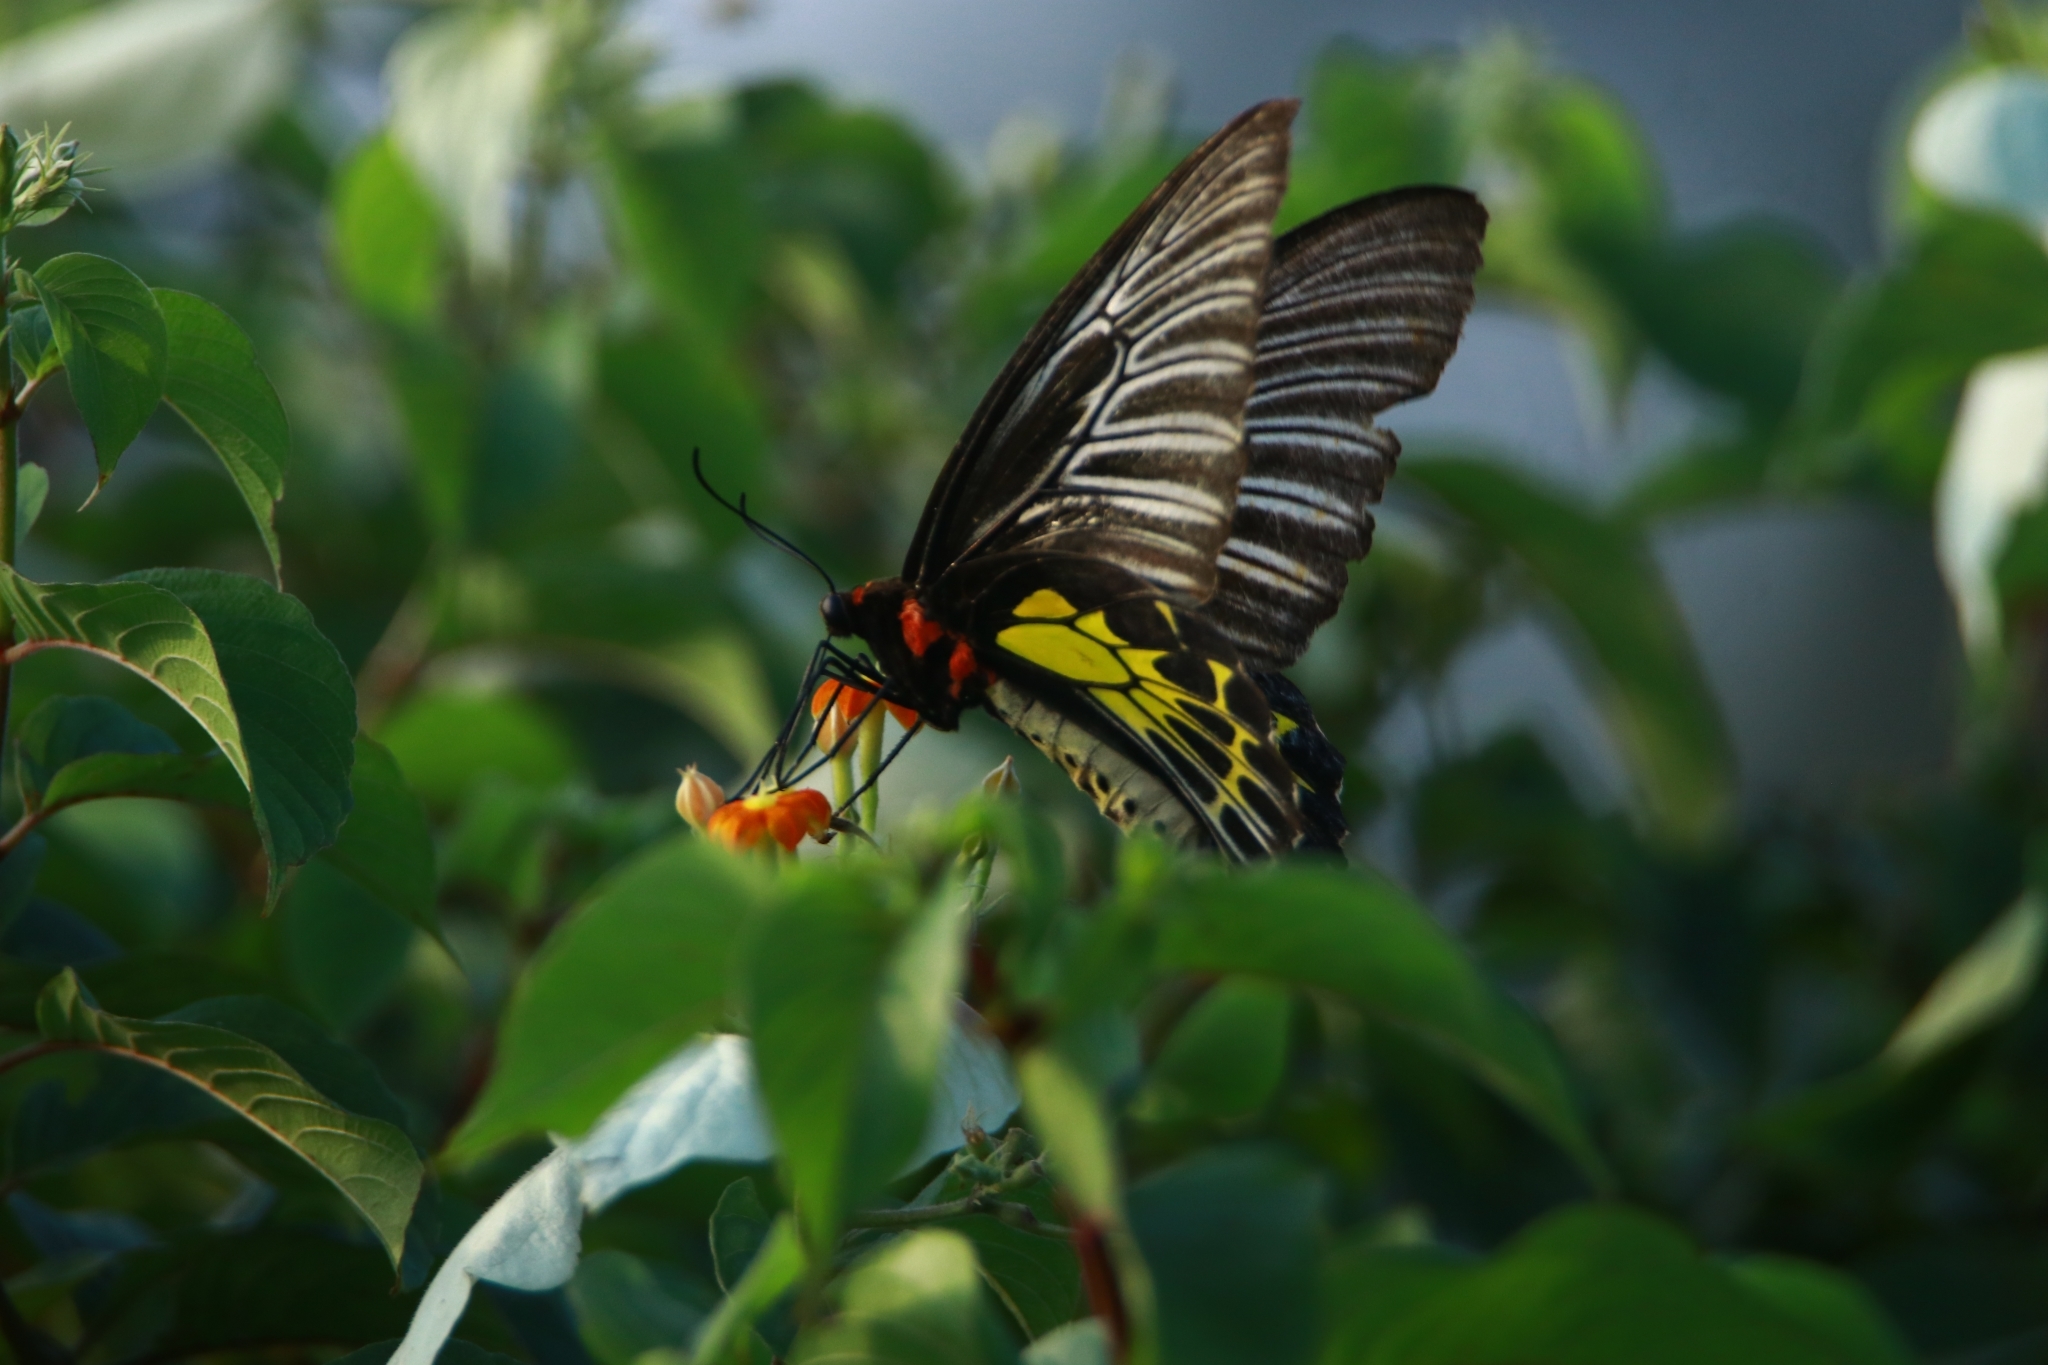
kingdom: Animalia
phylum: Arthropoda
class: Insecta
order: Lepidoptera
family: Papilionidae
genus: Troides
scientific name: Troides minos
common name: Malabar birdwing
